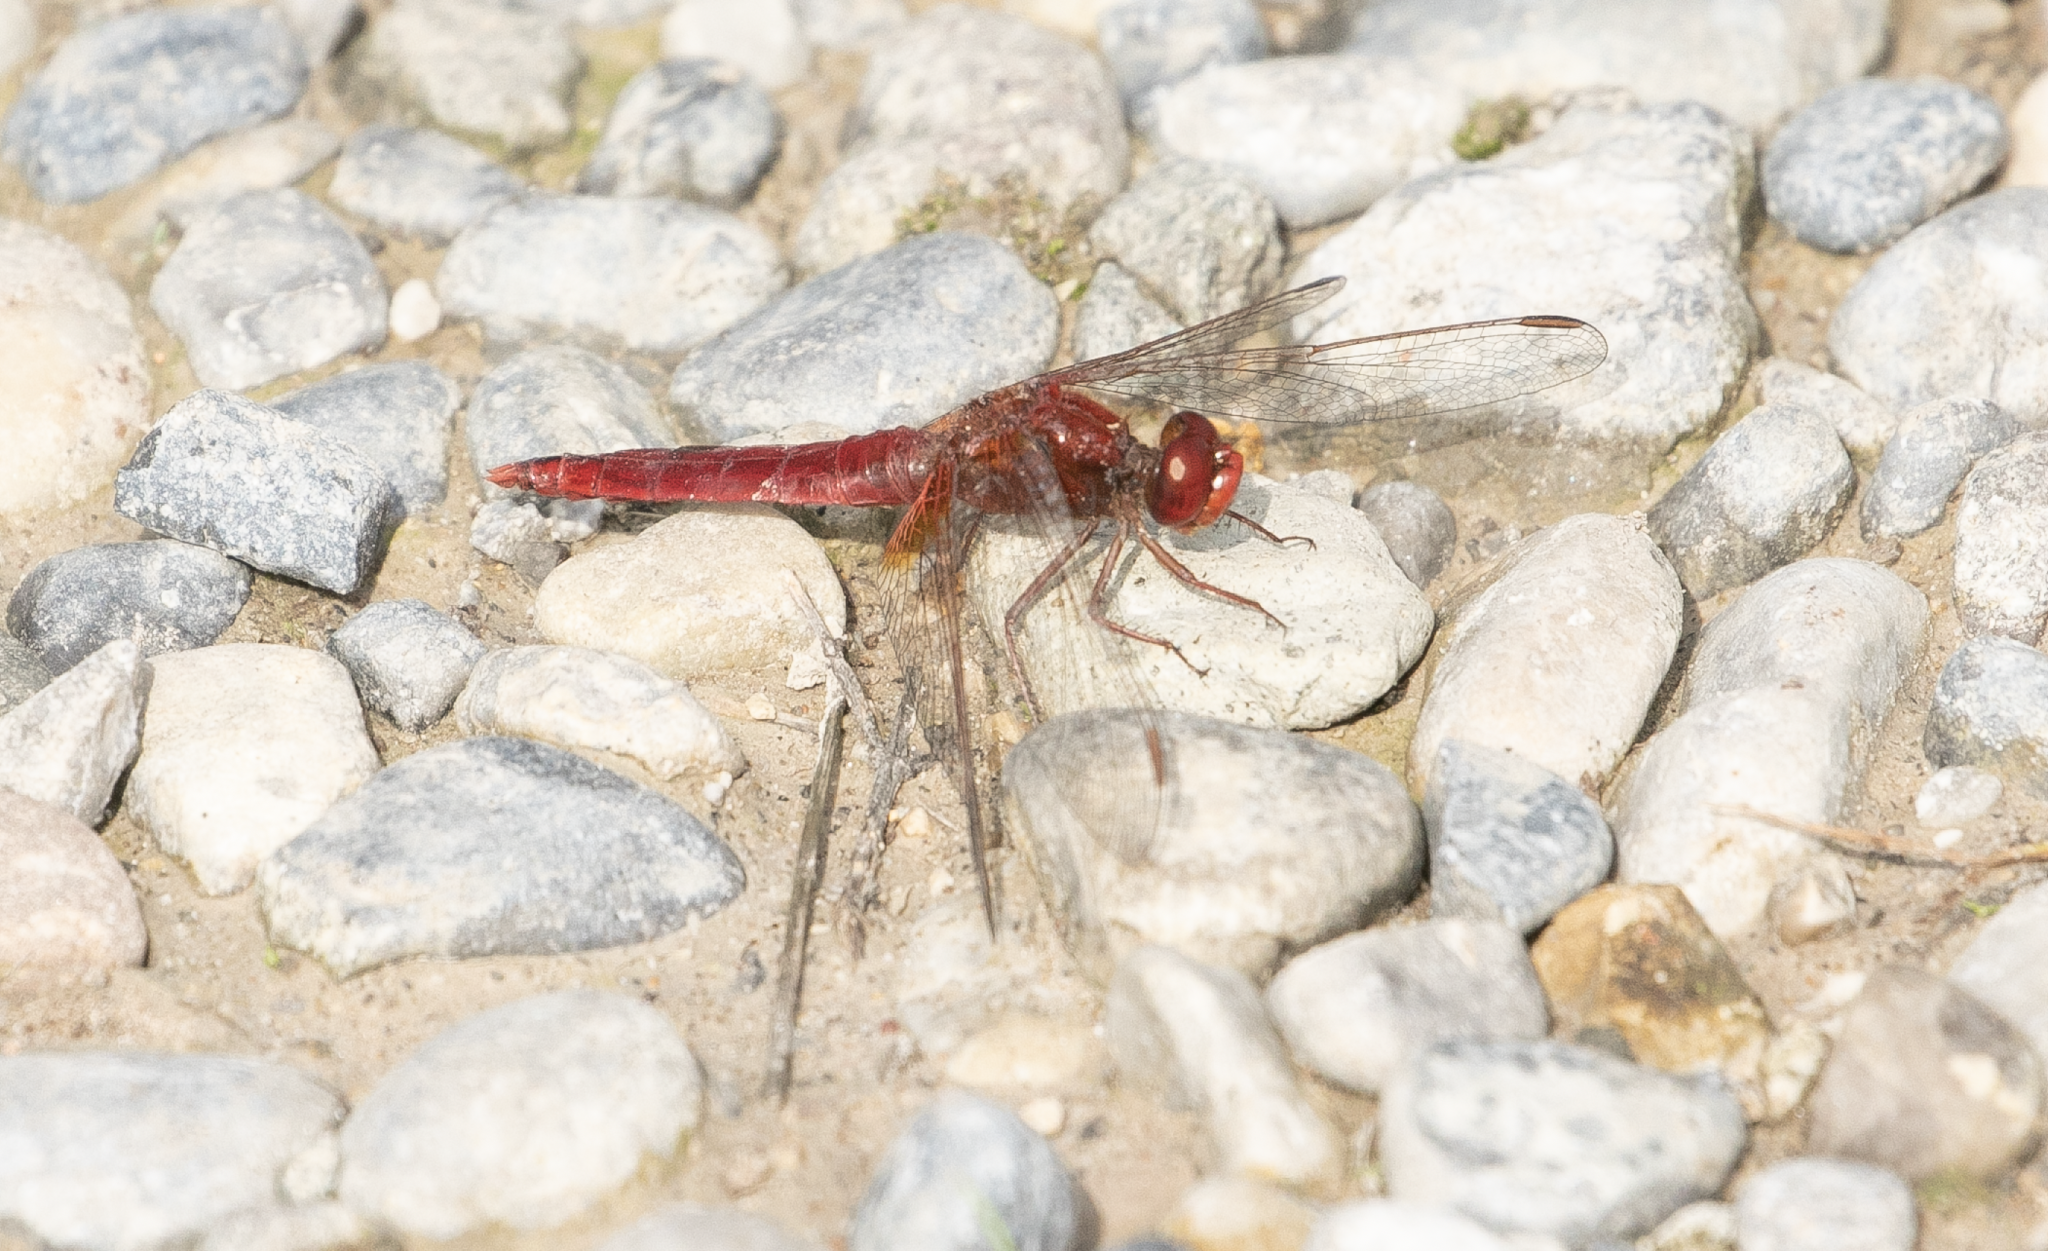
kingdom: Animalia
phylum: Arthropoda
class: Insecta
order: Odonata
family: Libellulidae
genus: Crocothemis
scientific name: Crocothemis erythraea
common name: Scarlet dragonfly
